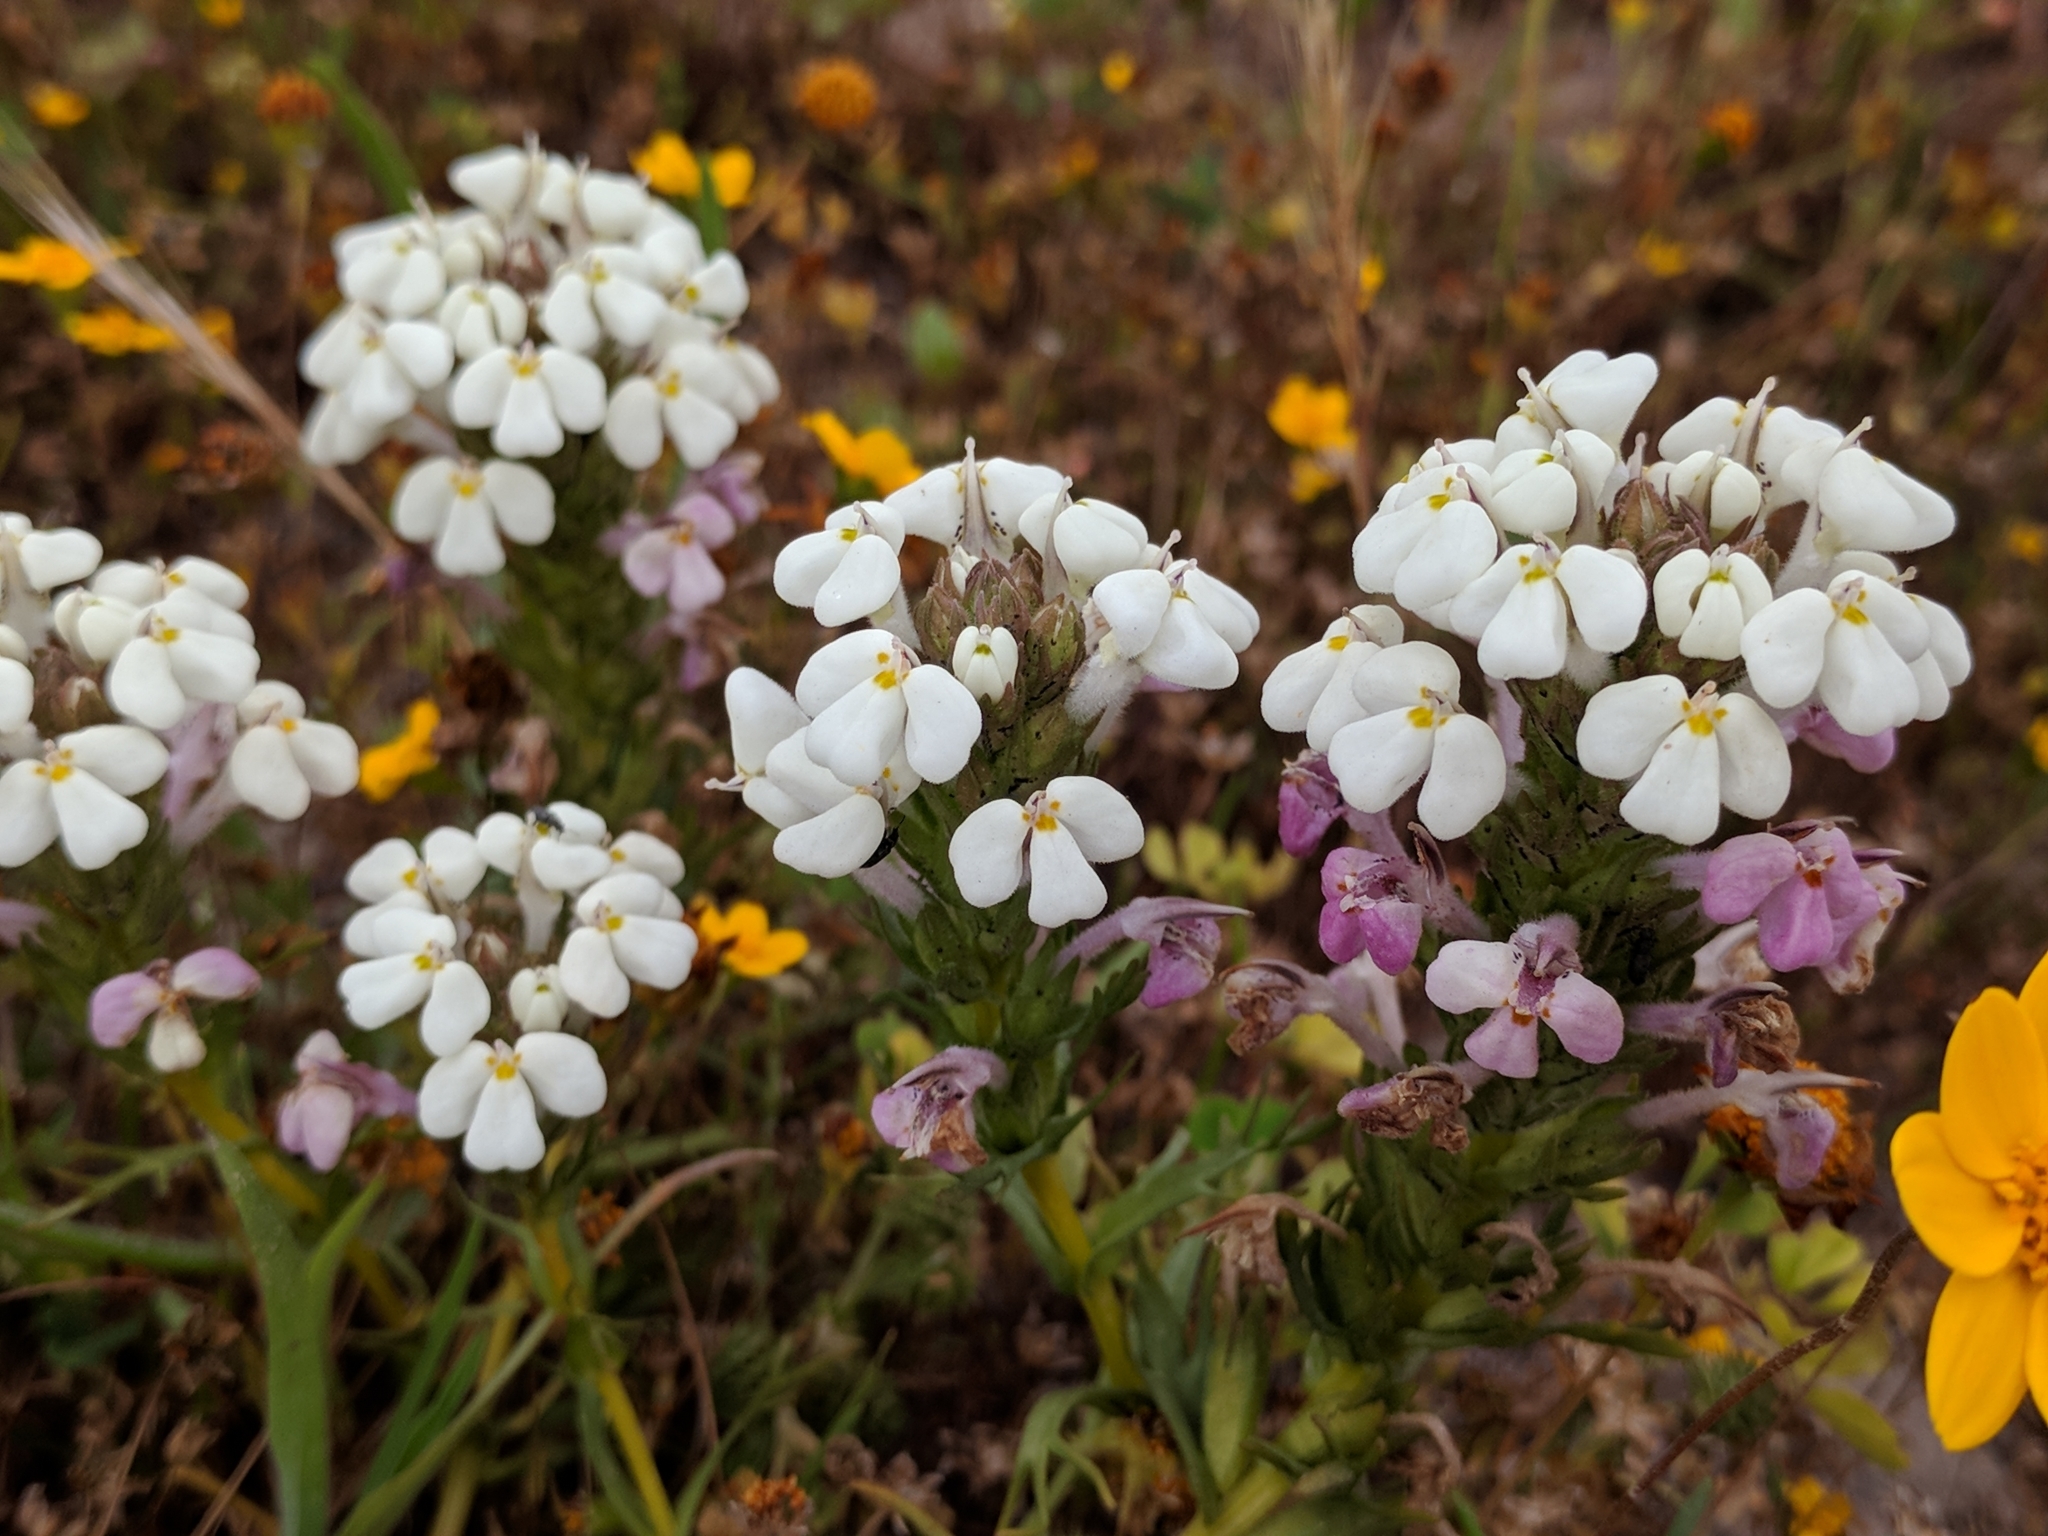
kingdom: Plantae
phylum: Tracheophyta
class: Magnoliopsida
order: Lamiales
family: Orobanchaceae
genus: Triphysaria
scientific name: Triphysaria versicolor
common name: Bearded false owl-clover
